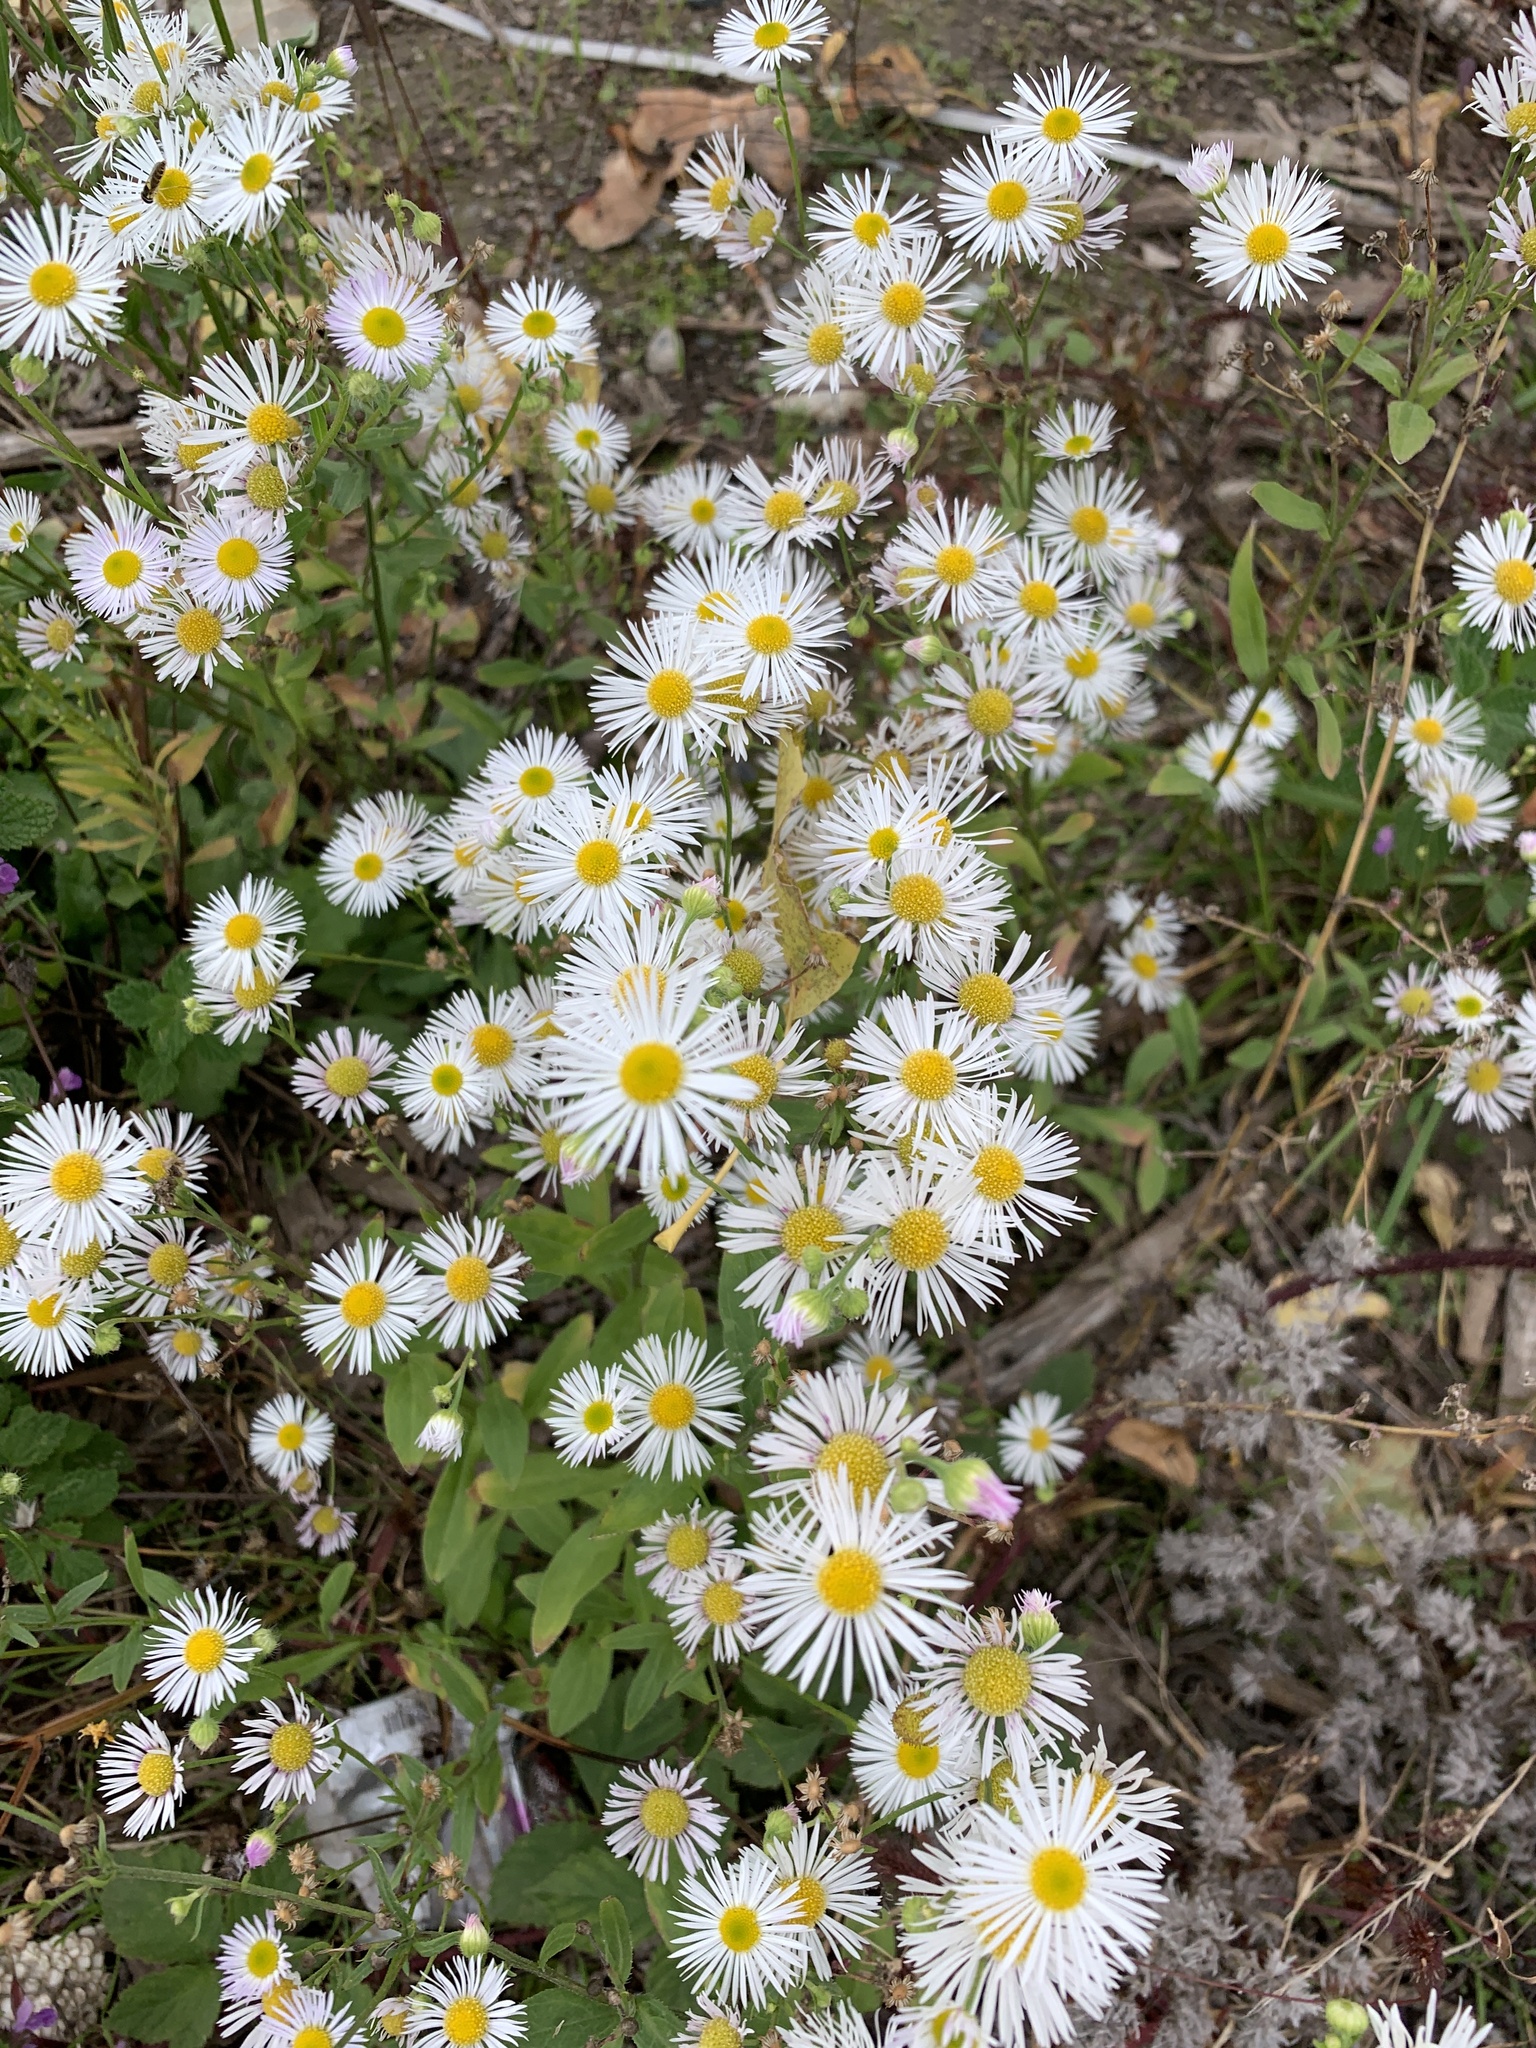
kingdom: Plantae
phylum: Tracheophyta
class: Magnoliopsida
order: Asterales
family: Asteraceae
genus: Erigeron
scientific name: Erigeron annuus
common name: Tall fleabane
